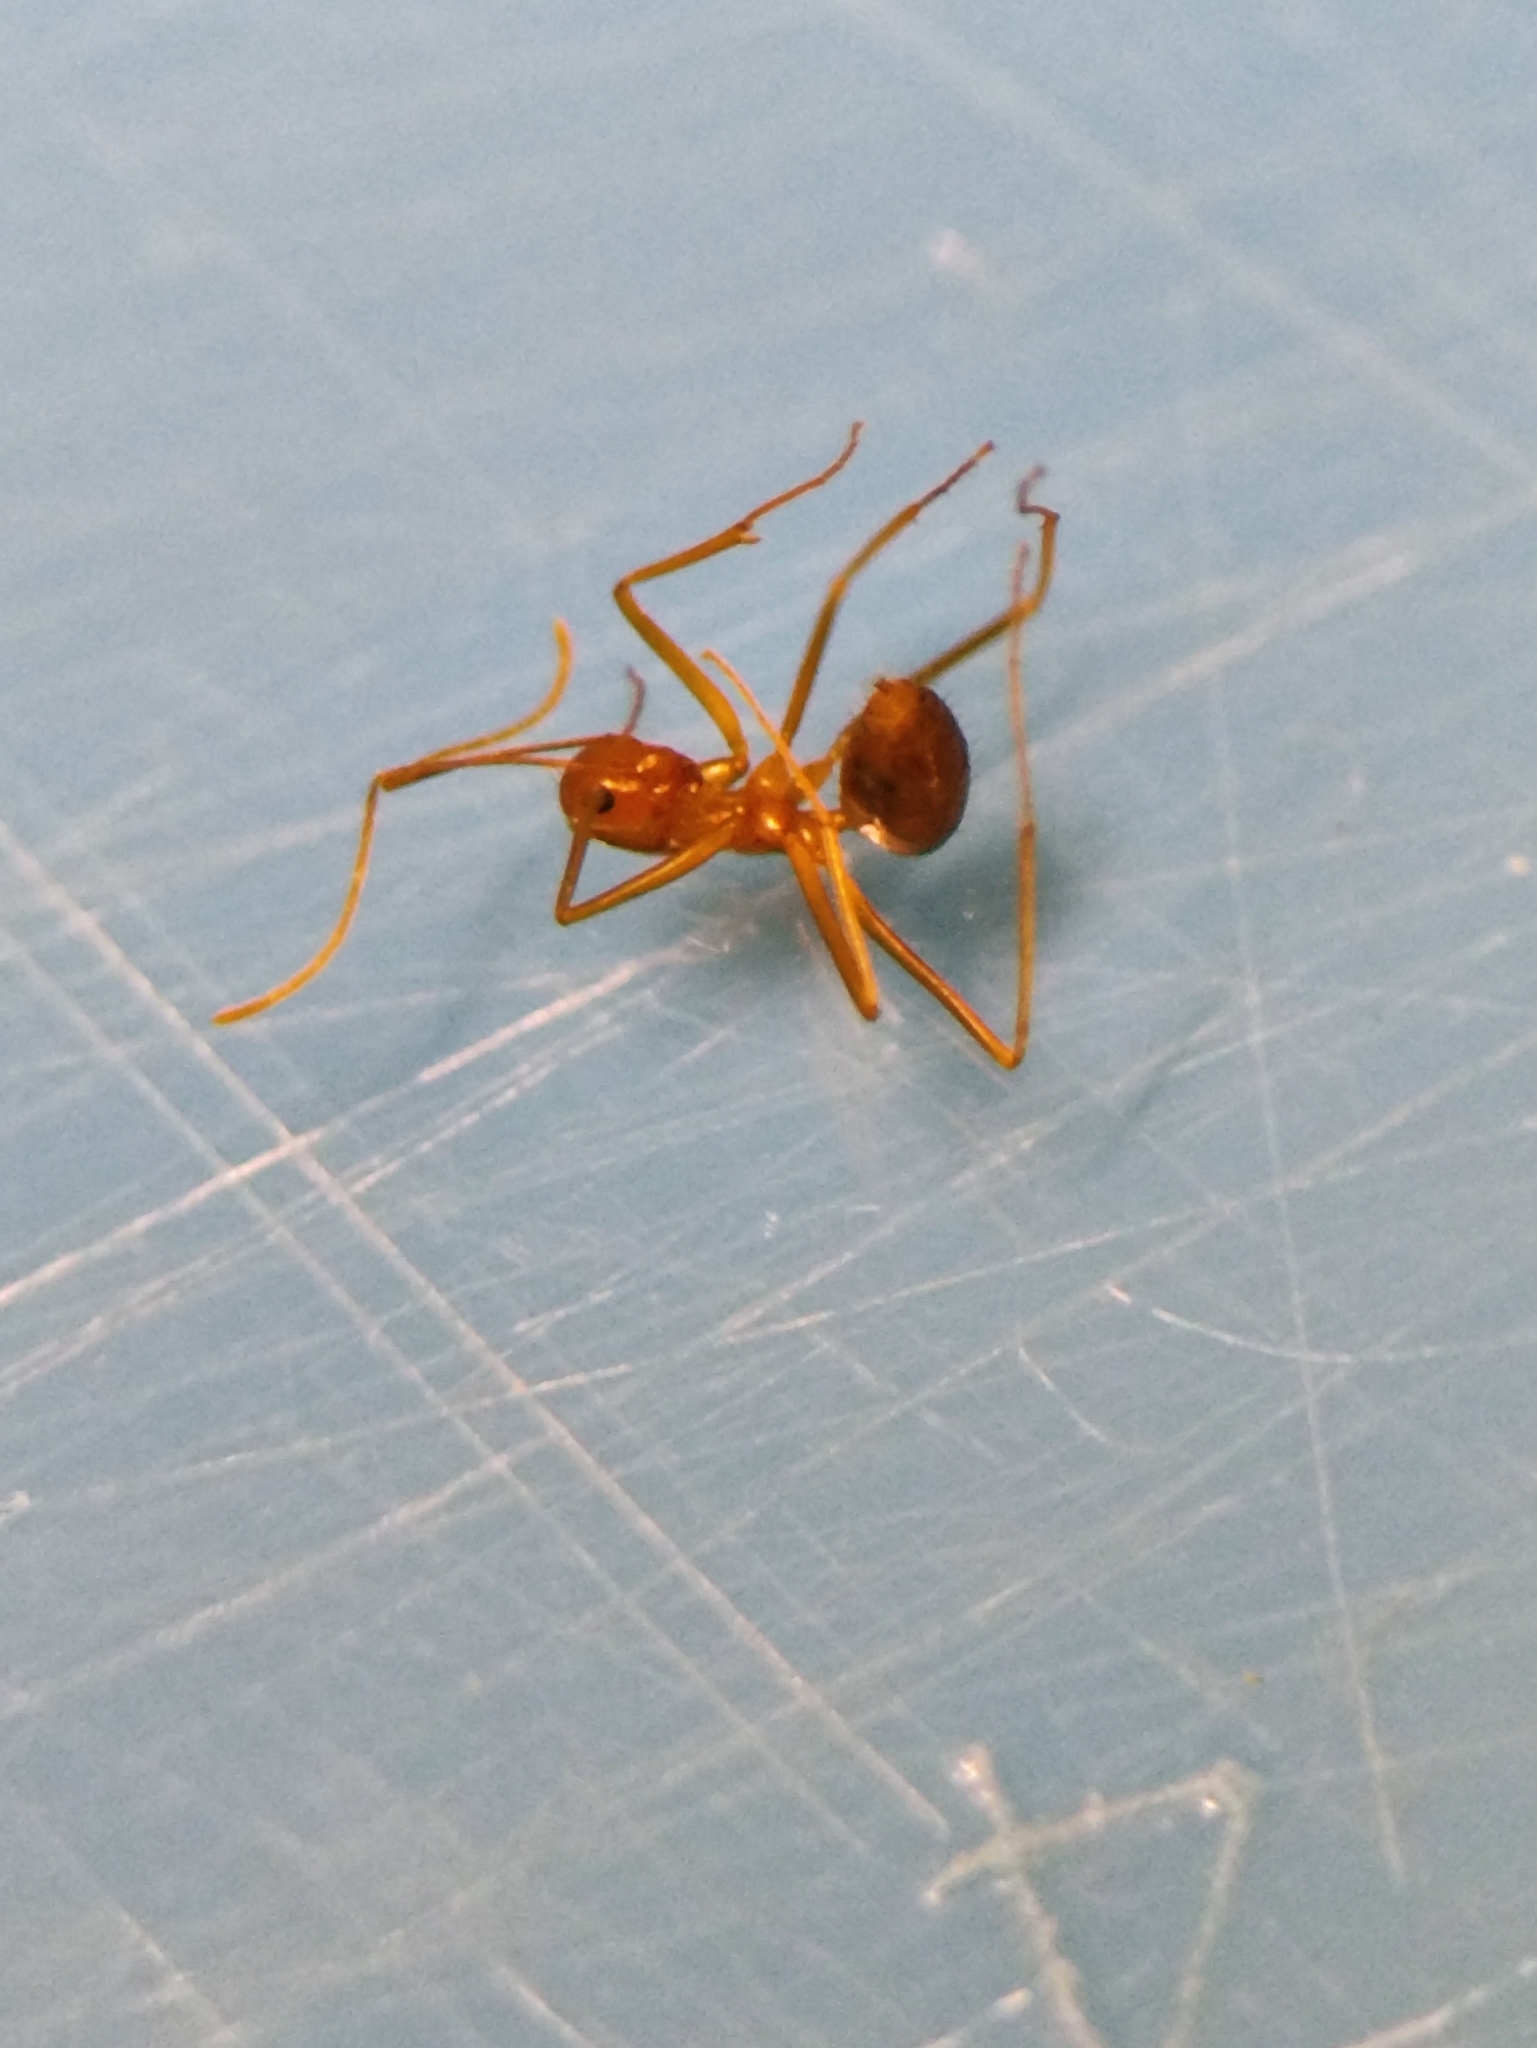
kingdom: Animalia
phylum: Arthropoda
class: Insecta
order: Hymenoptera
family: Formicidae
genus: Anoplolepis
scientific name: Anoplolepis gracilipes
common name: Ant
